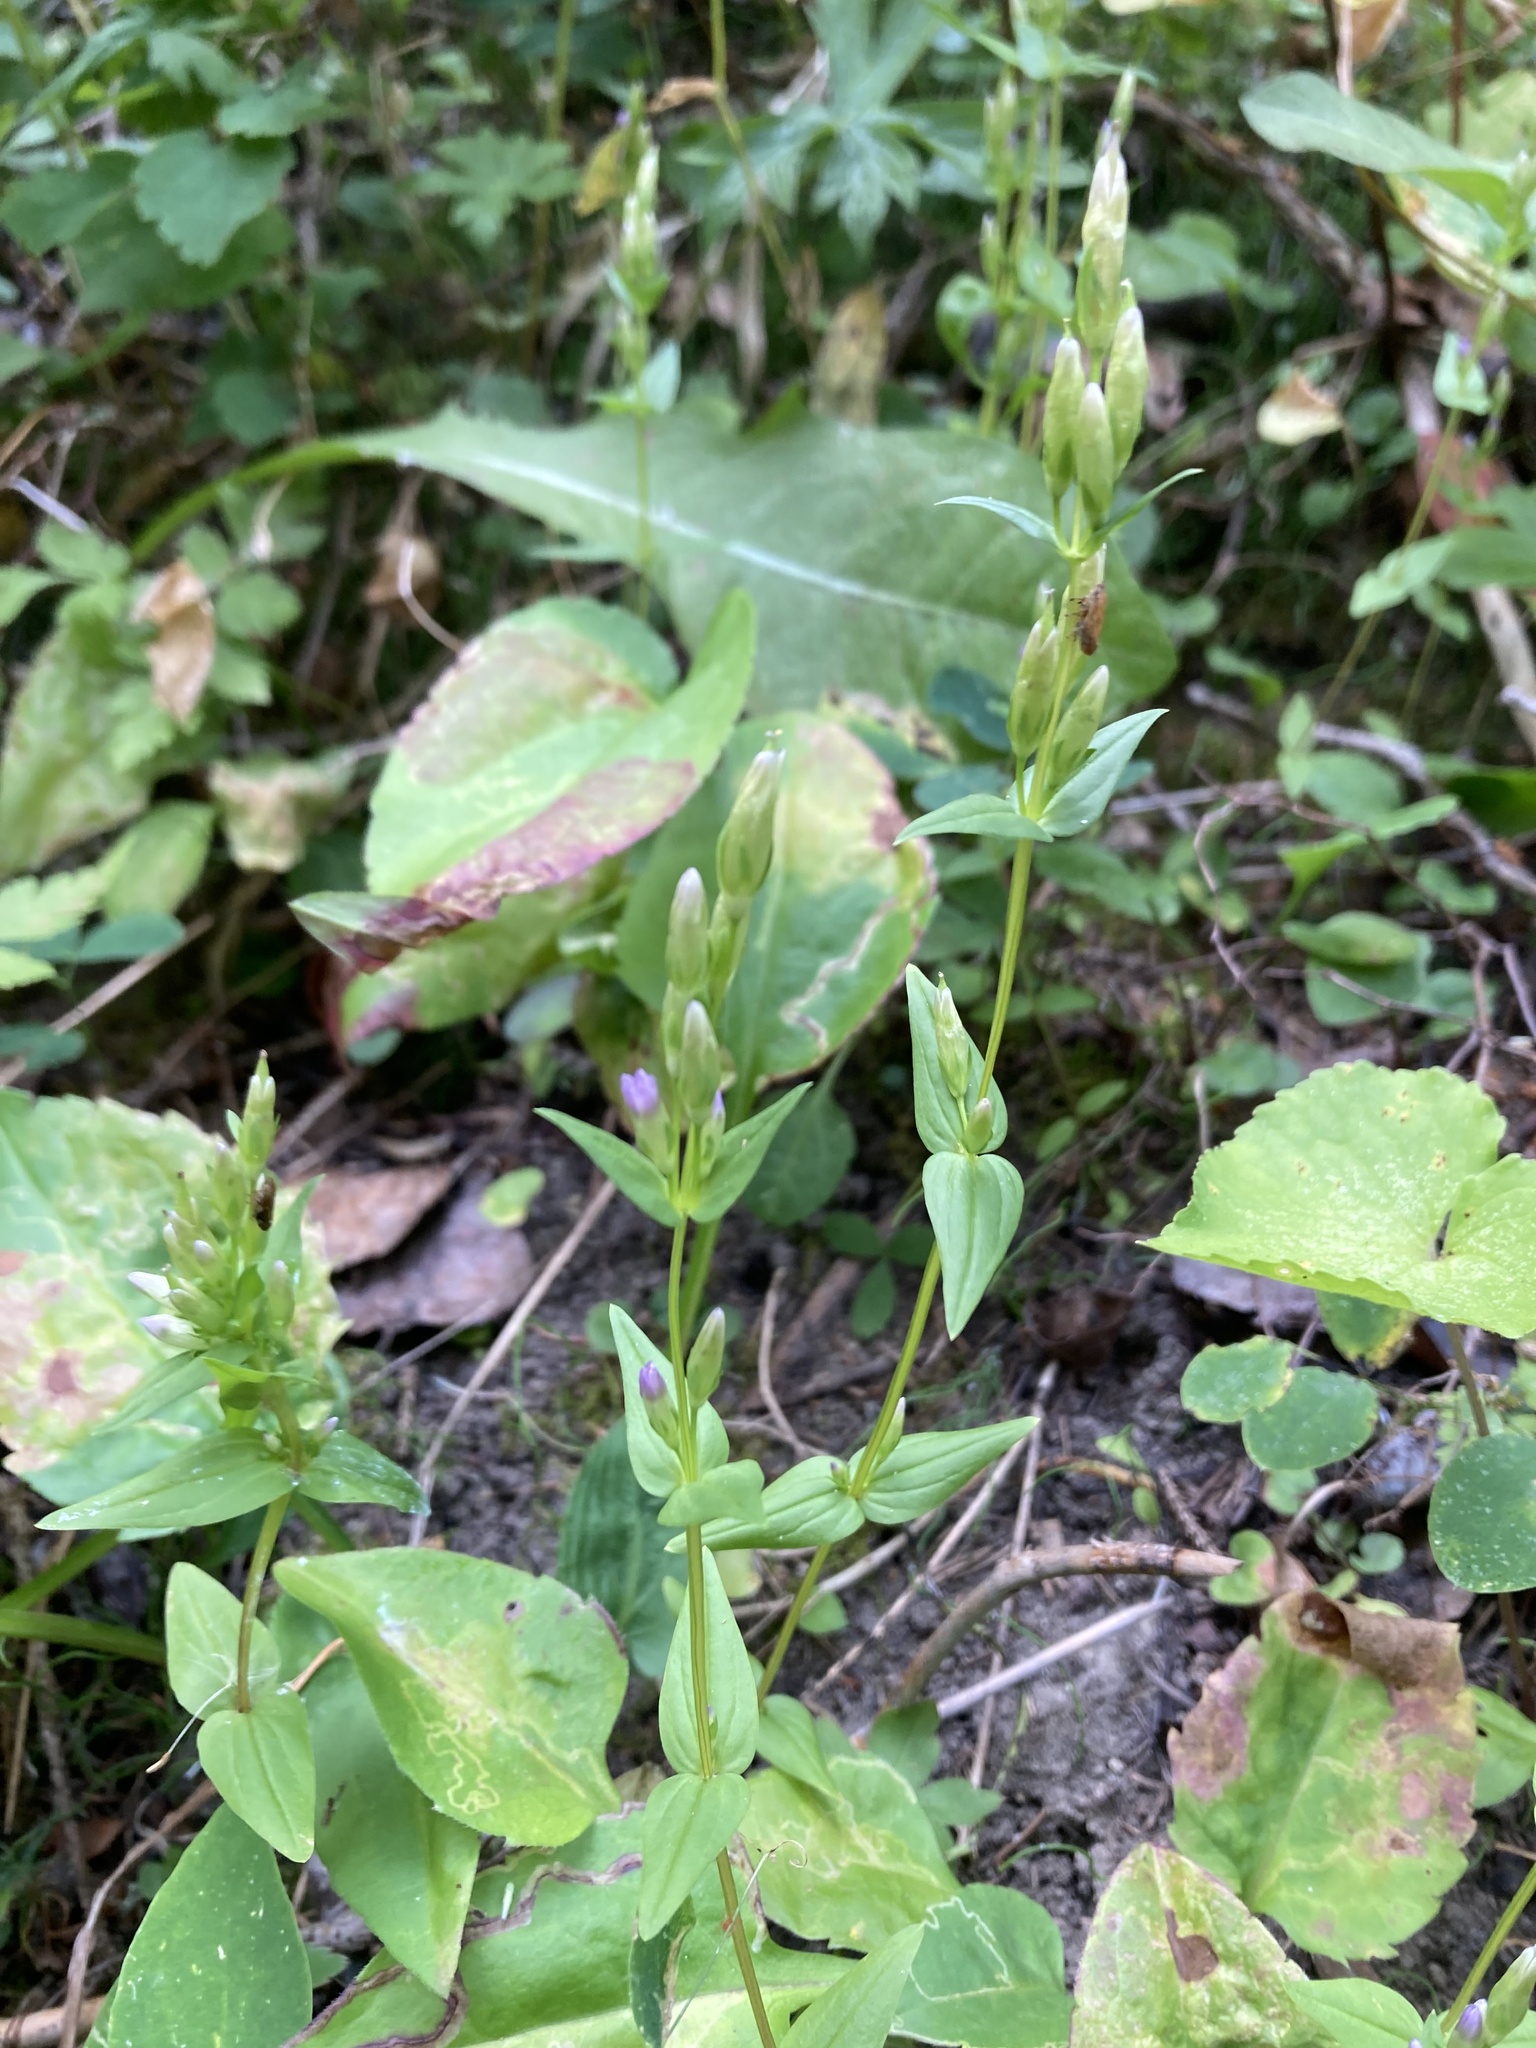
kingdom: Plantae
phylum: Tracheophyta
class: Magnoliopsida
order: Gentianales
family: Gentianaceae
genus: Gentianella
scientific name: Gentianella amarella
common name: Autumn gentian
